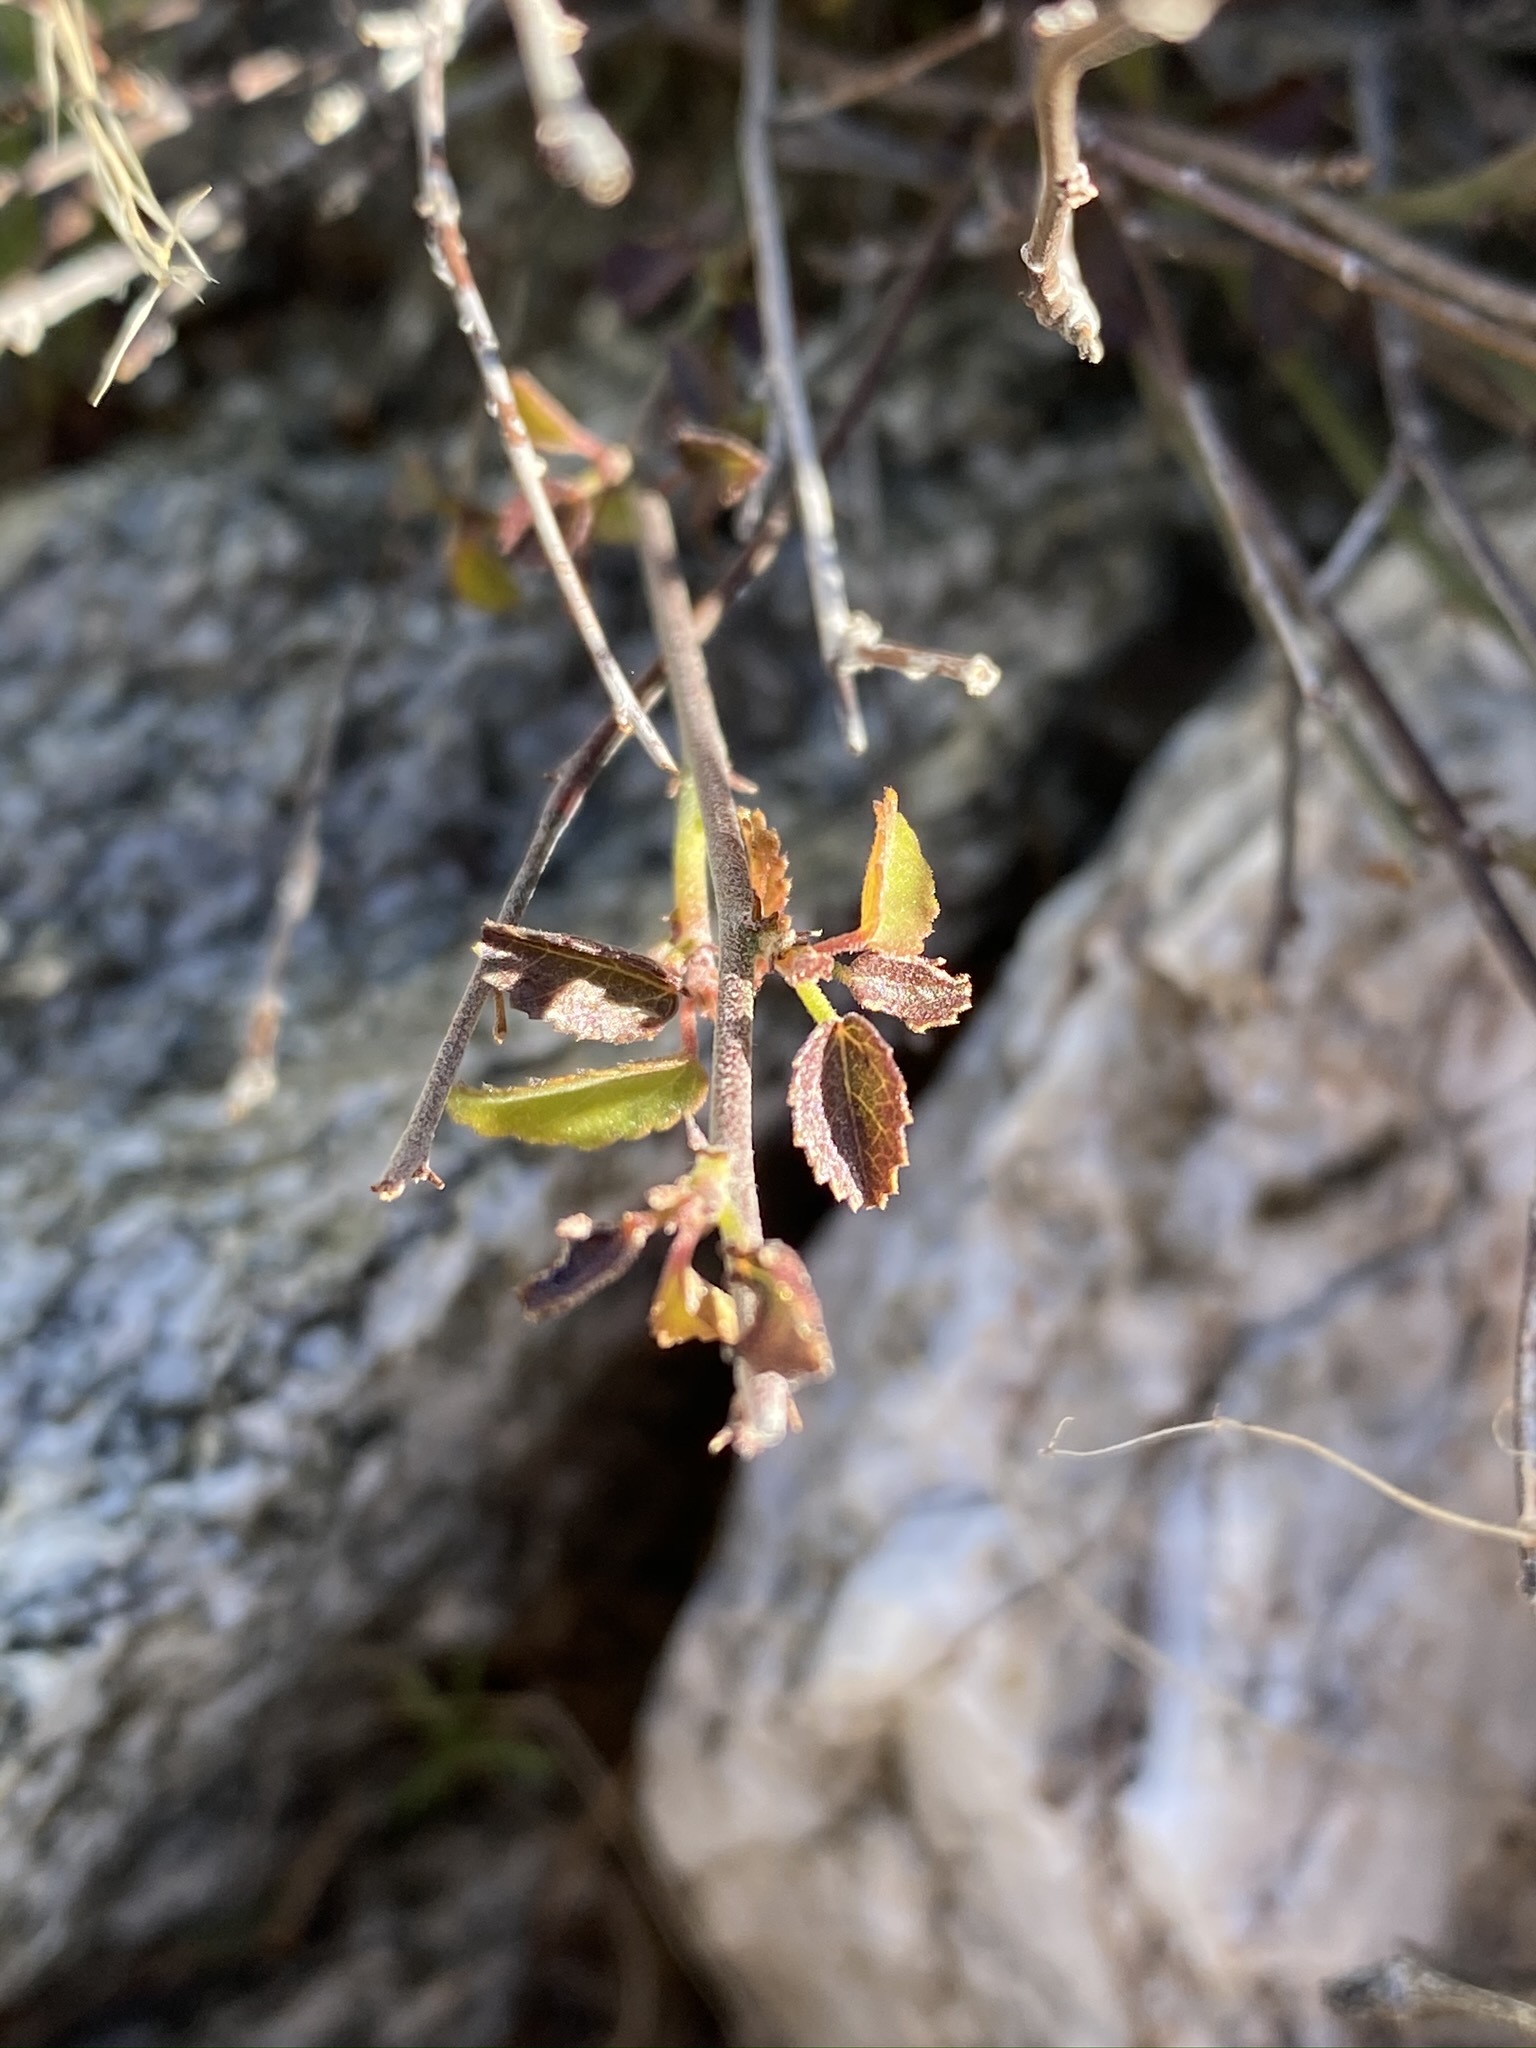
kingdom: Plantae
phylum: Tracheophyta
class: Magnoliopsida
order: Malvales
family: Malvaceae
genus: Ayenia
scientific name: Ayenia compacta
